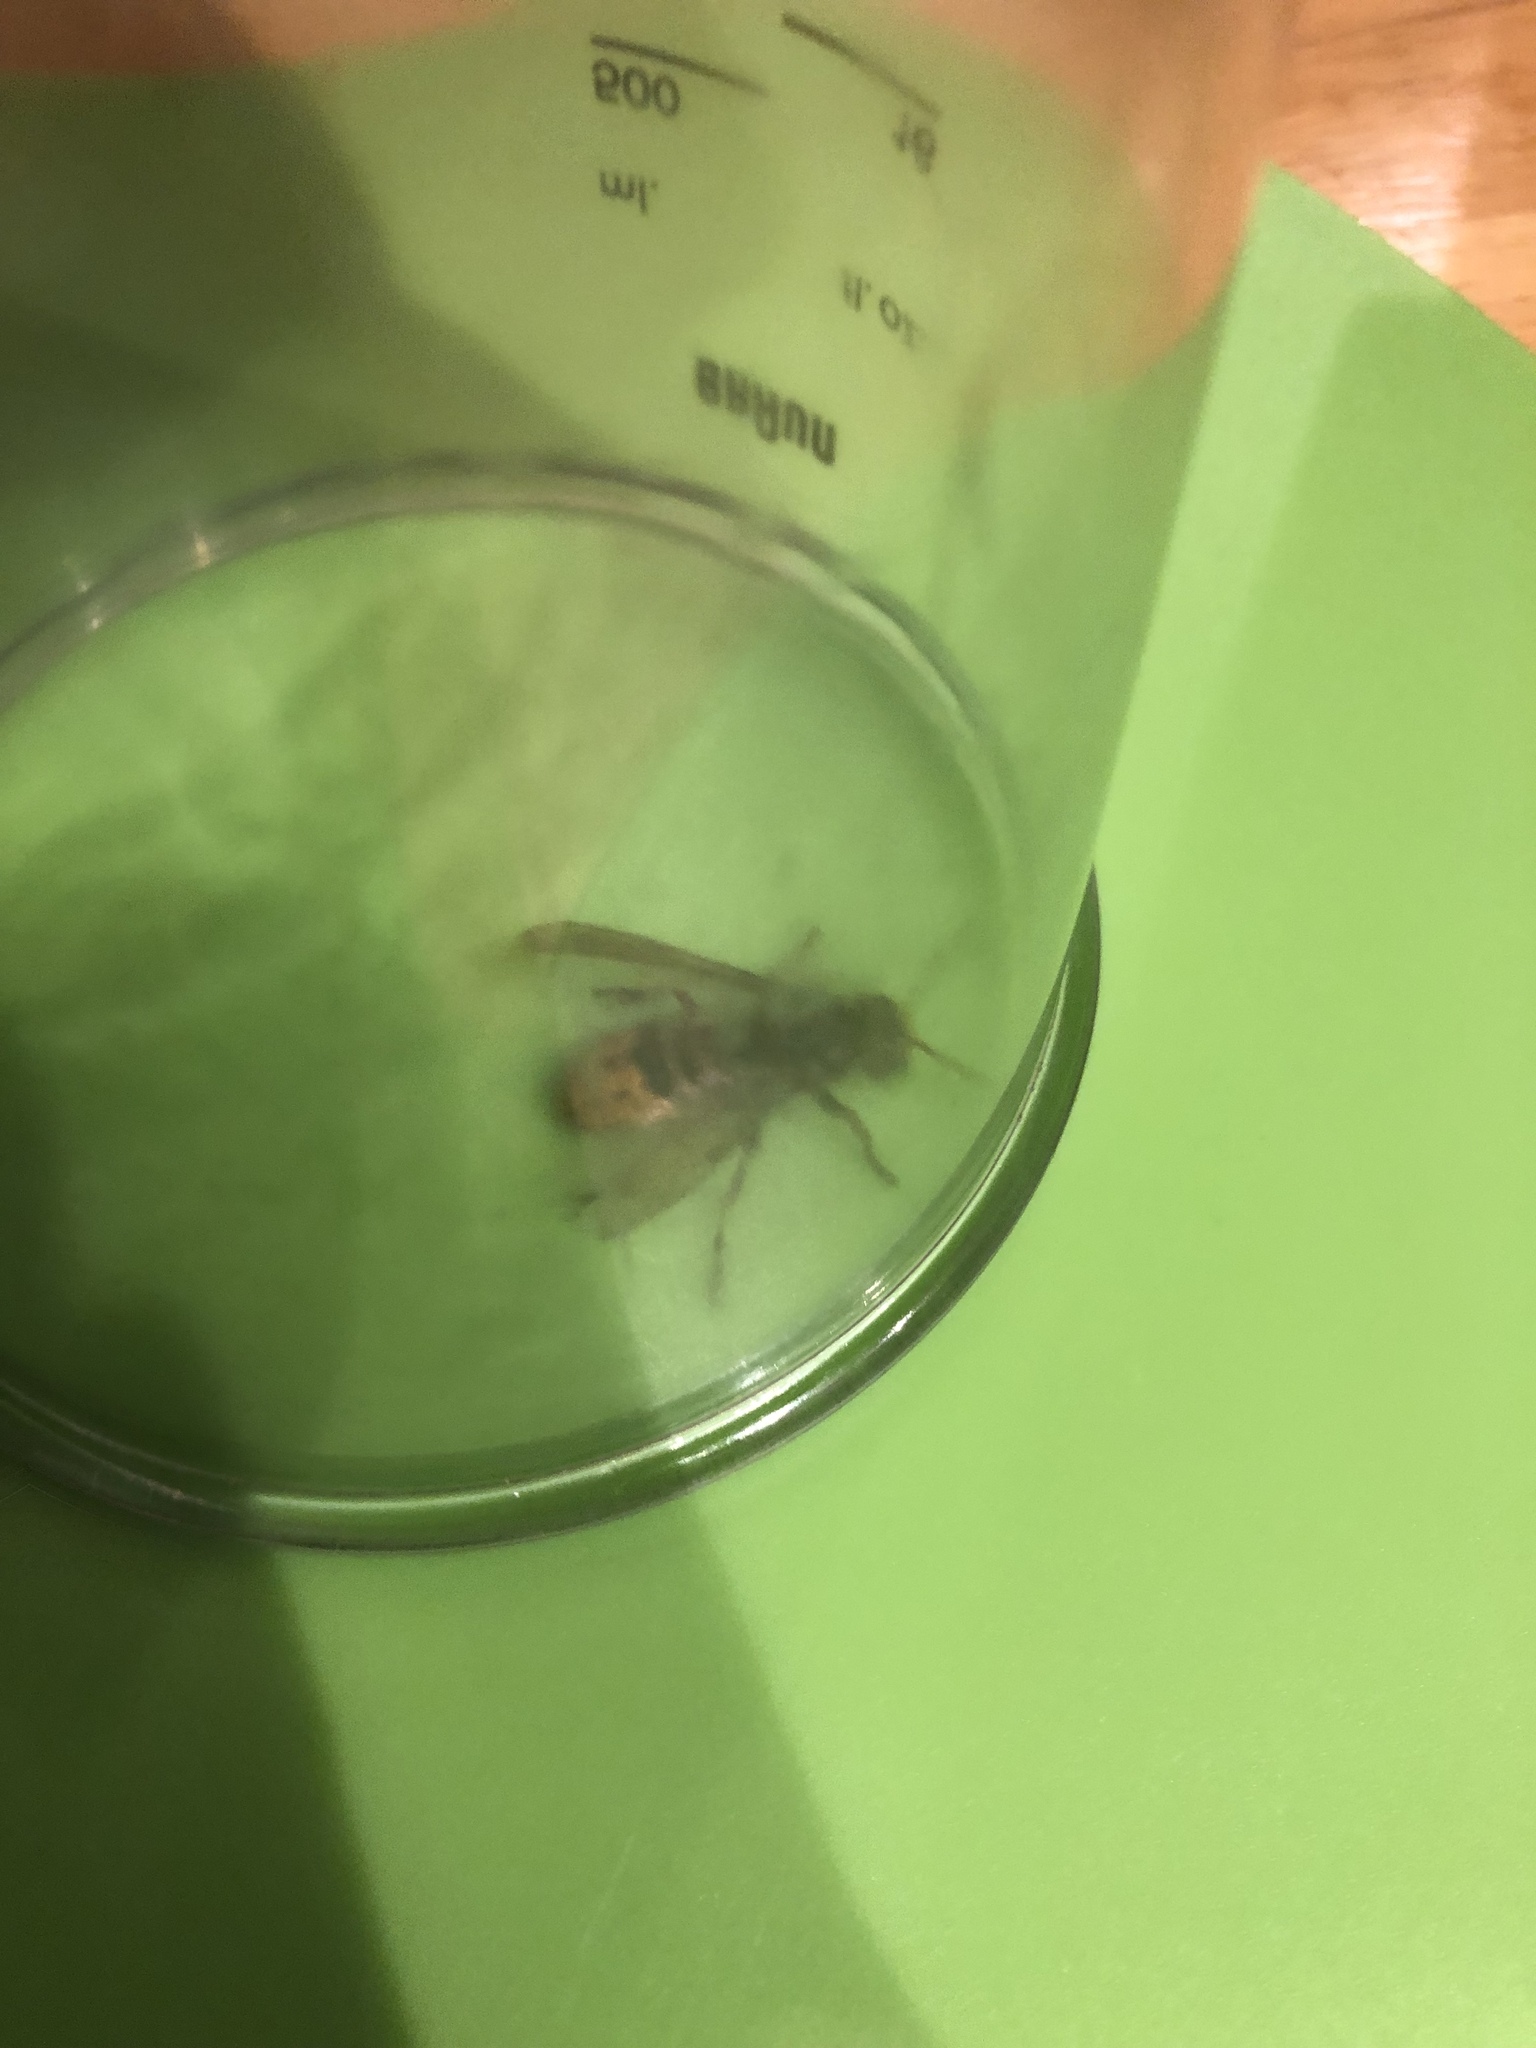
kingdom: Animalia
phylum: Arthropoda
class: Insecta
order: Hymenoptera
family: Vespidae
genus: Vespa
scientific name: Vespa crabro
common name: Hornet
